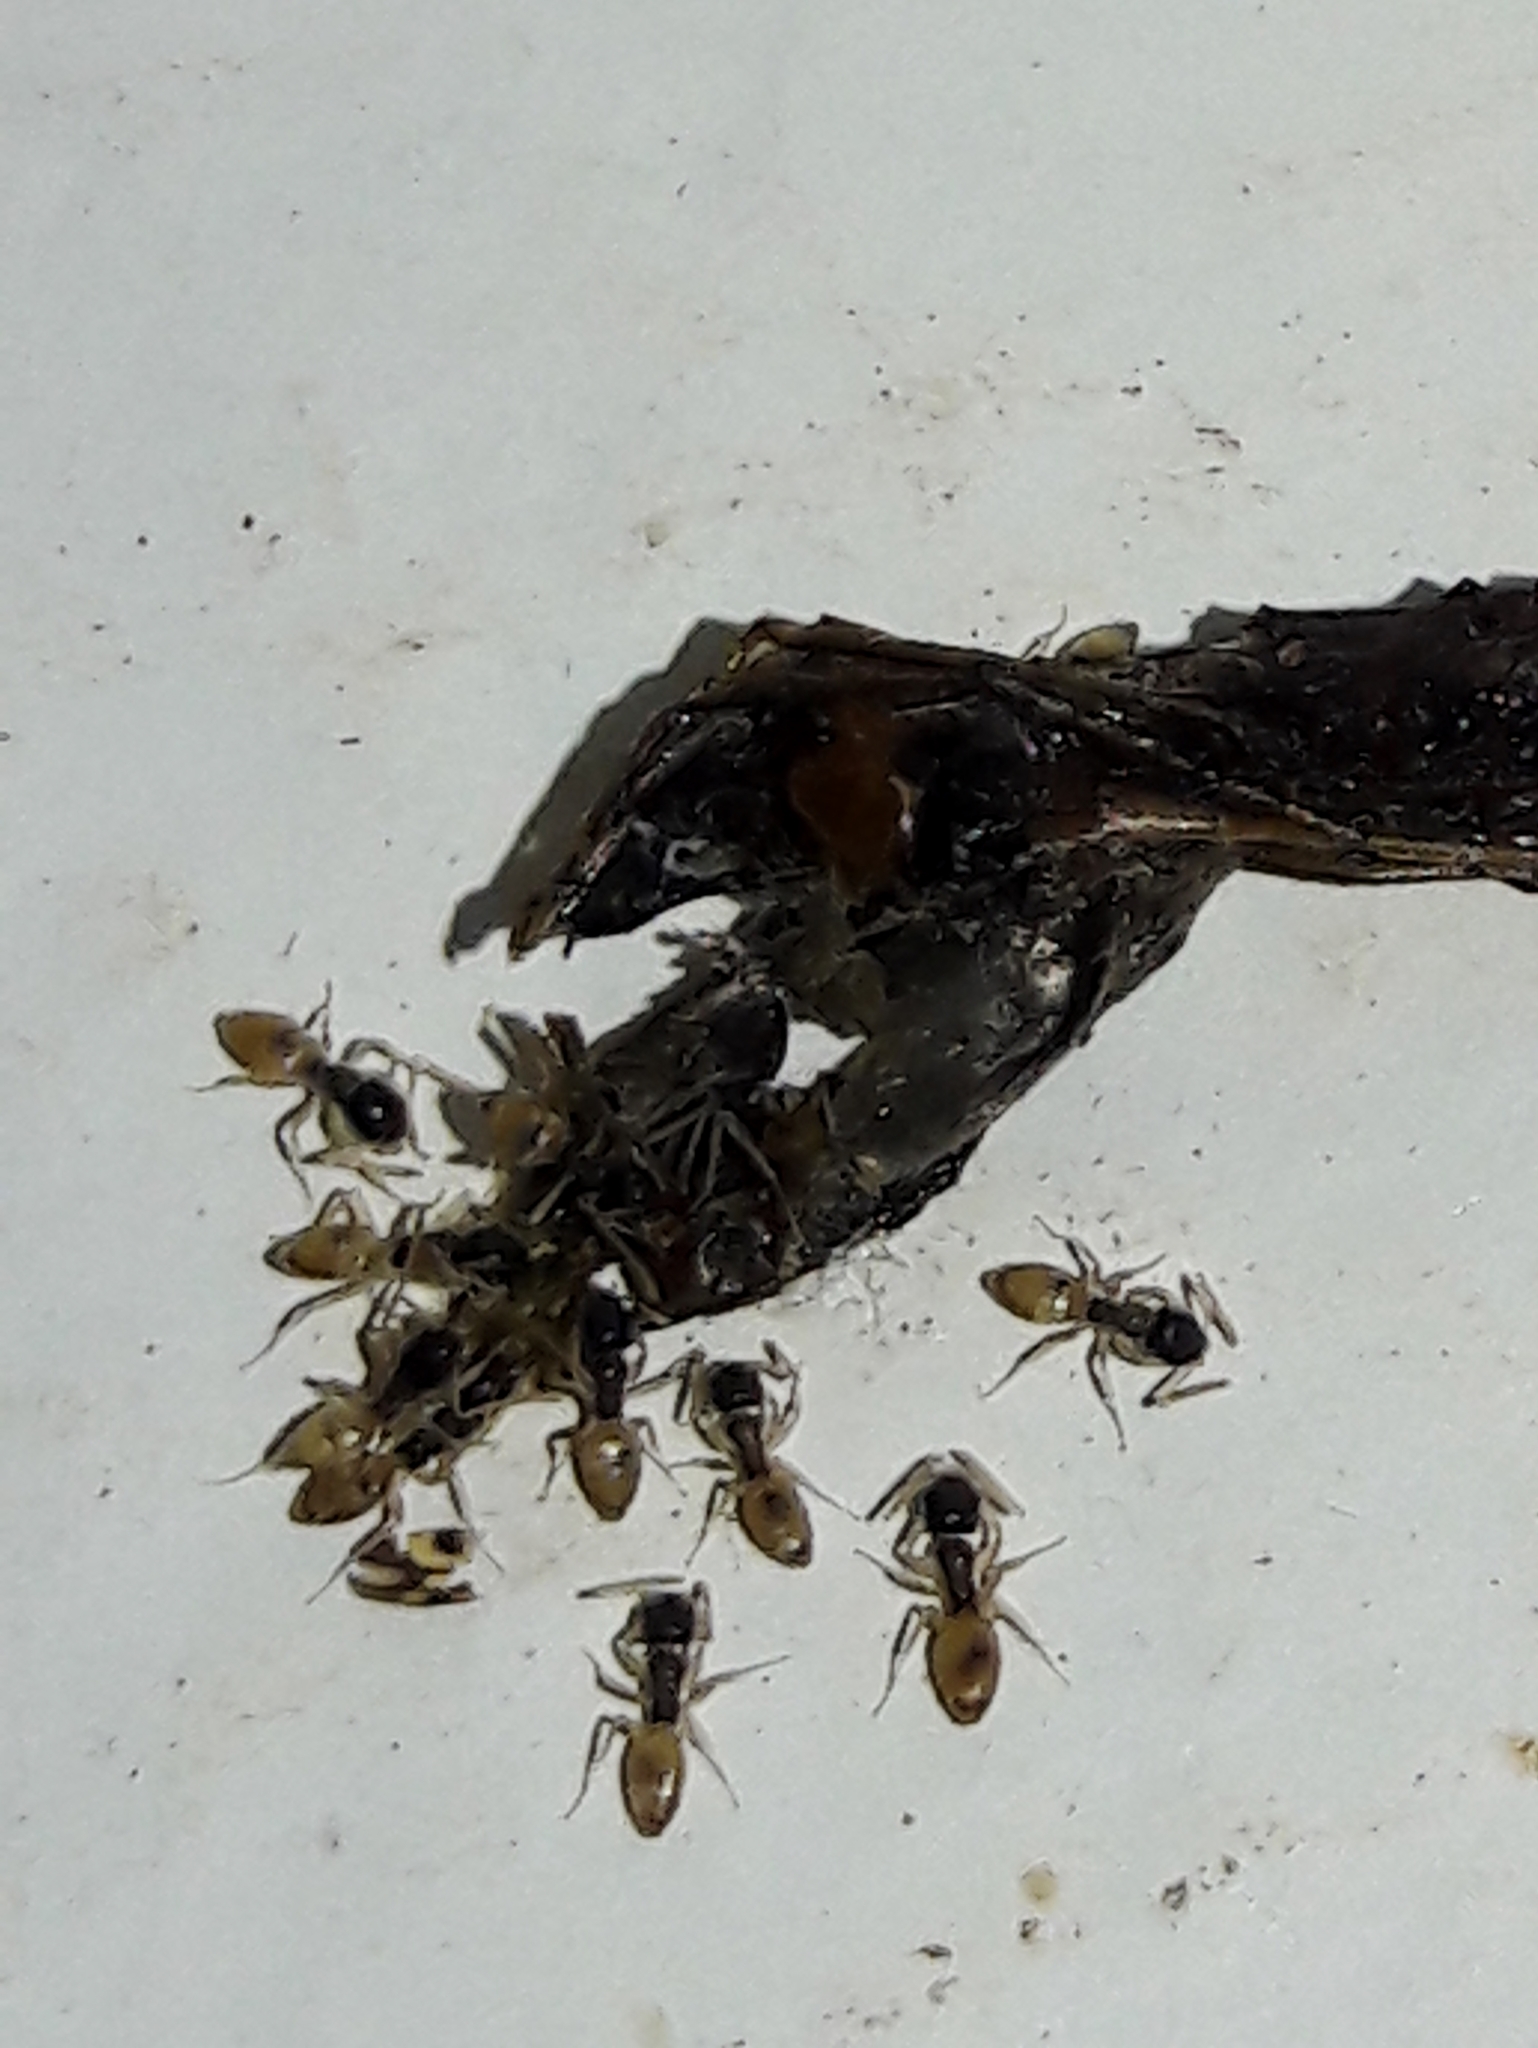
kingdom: Animalia
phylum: Arthropoda
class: Insecta
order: Hymenoptera
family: Formicidae
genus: Tapinoma
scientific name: Tapinoma melanocephalum
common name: Ghost ant
